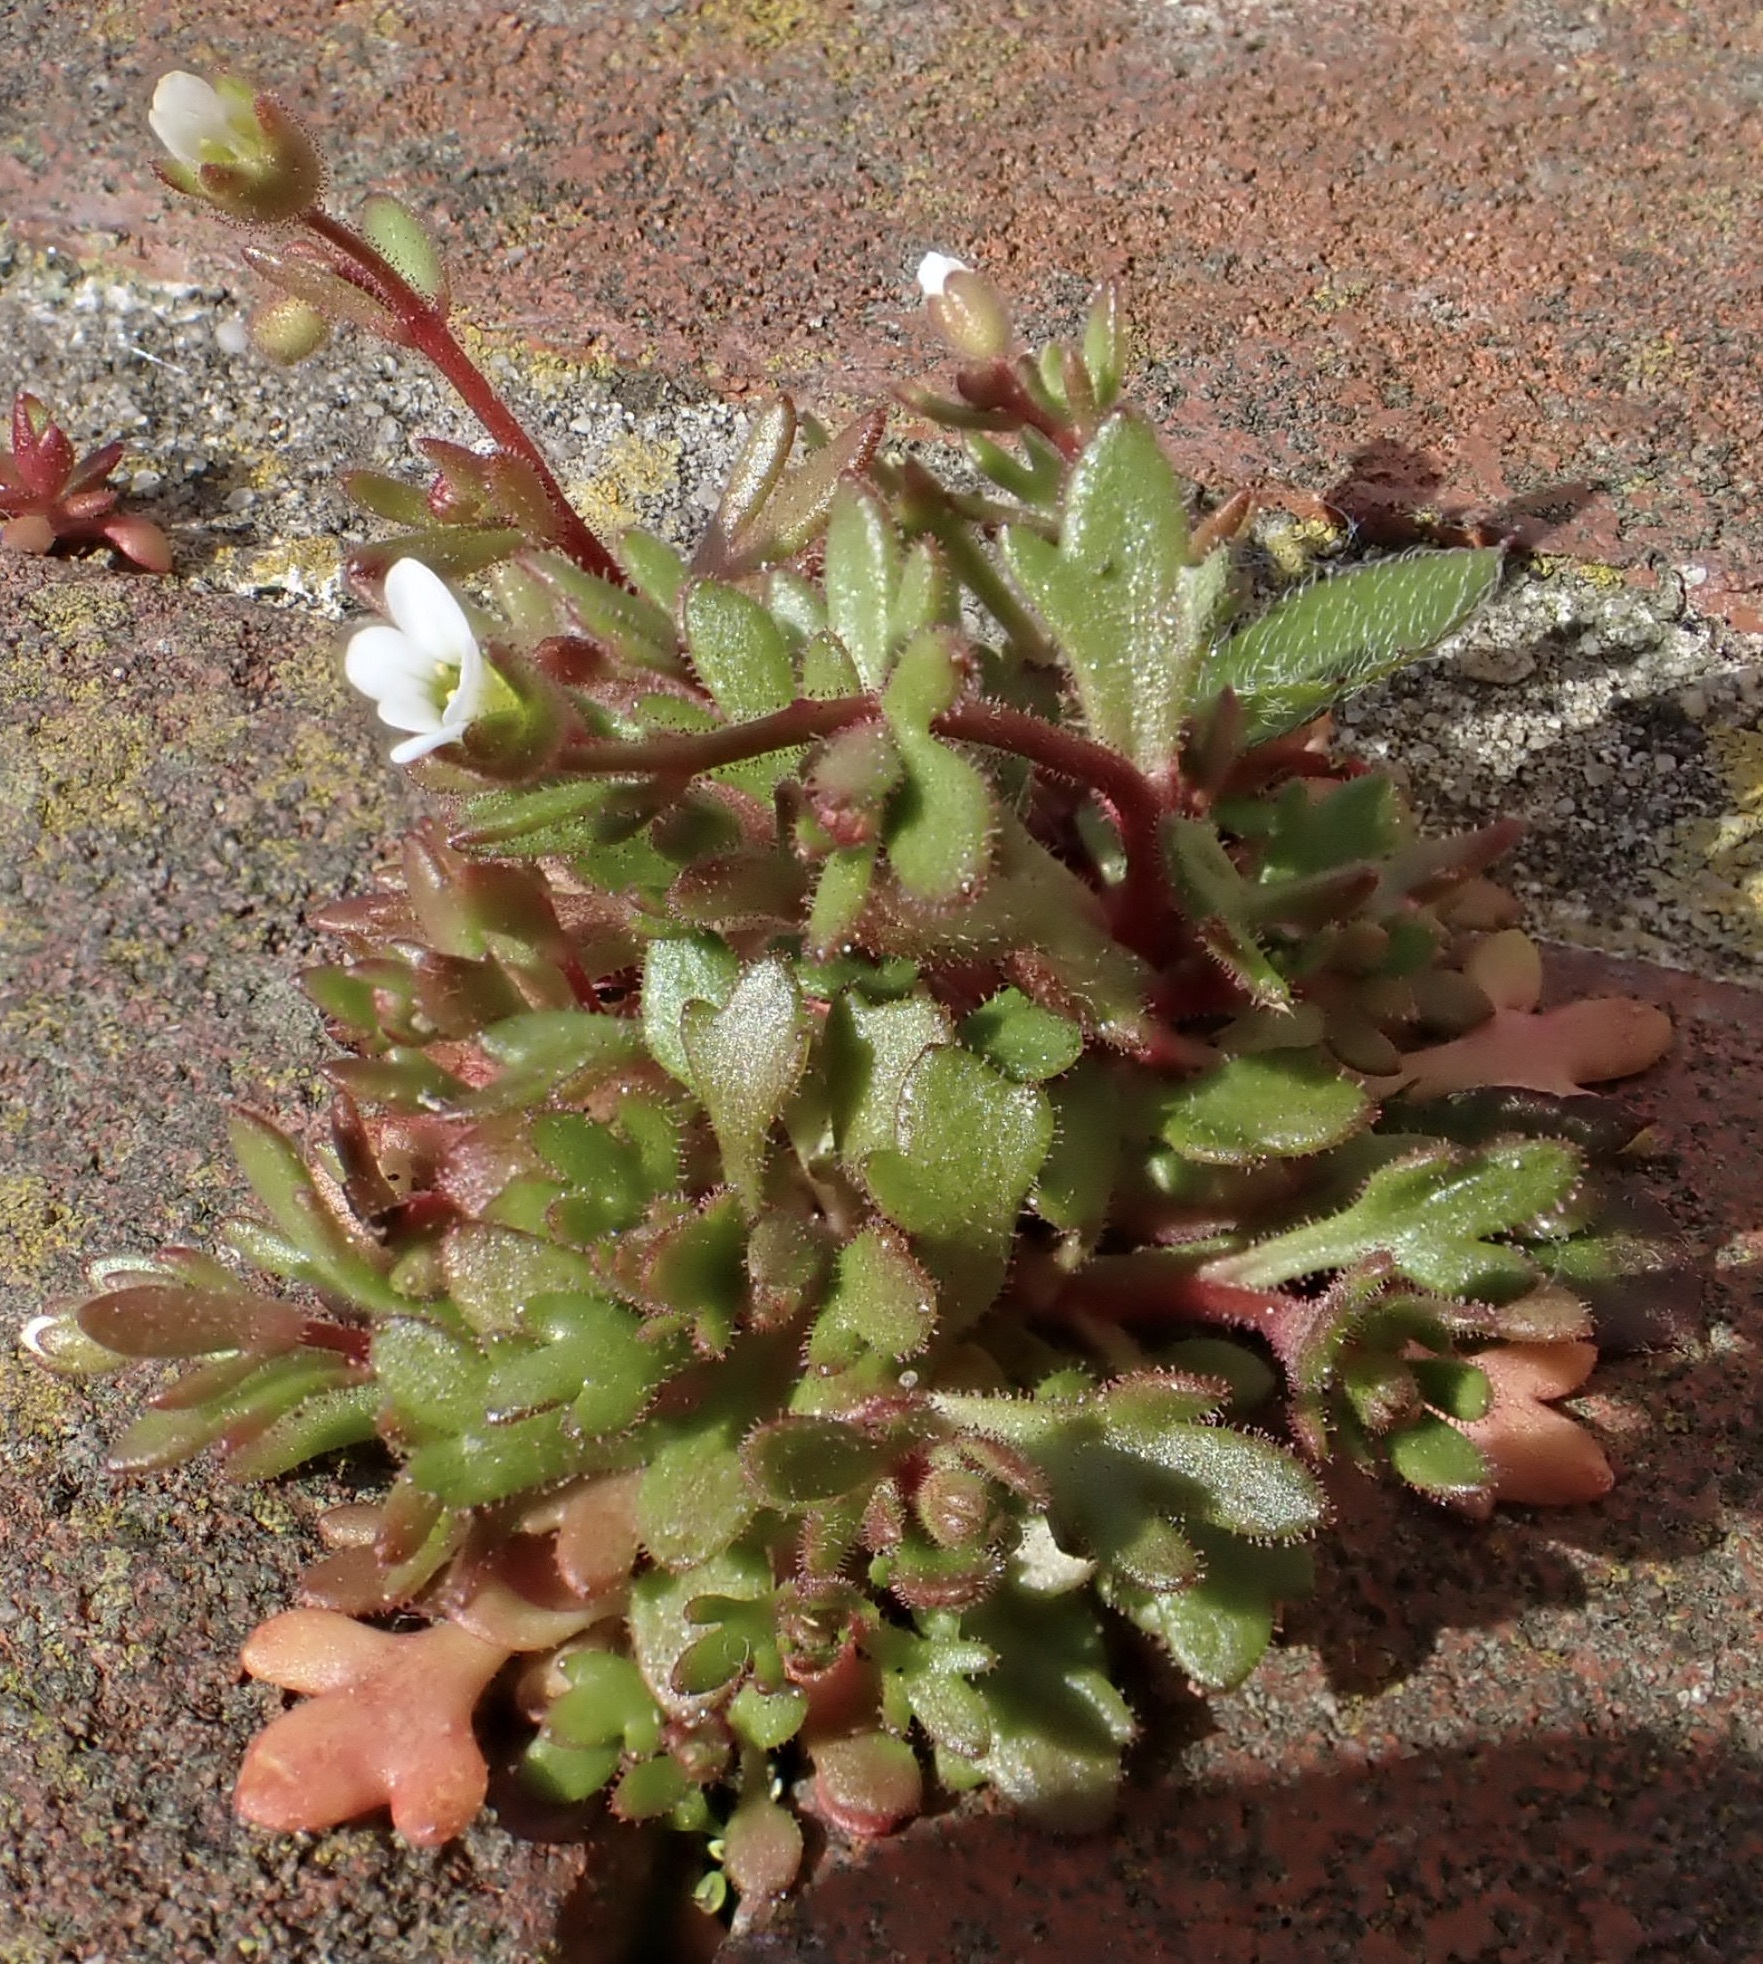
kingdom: Plantae
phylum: Tracheophyta
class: Magnoliopsida
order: Saxifragales
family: Saxifragaceae
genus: Saxifraga
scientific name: Saxifraga tridactylites
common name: Rue-leaved saxifrage
